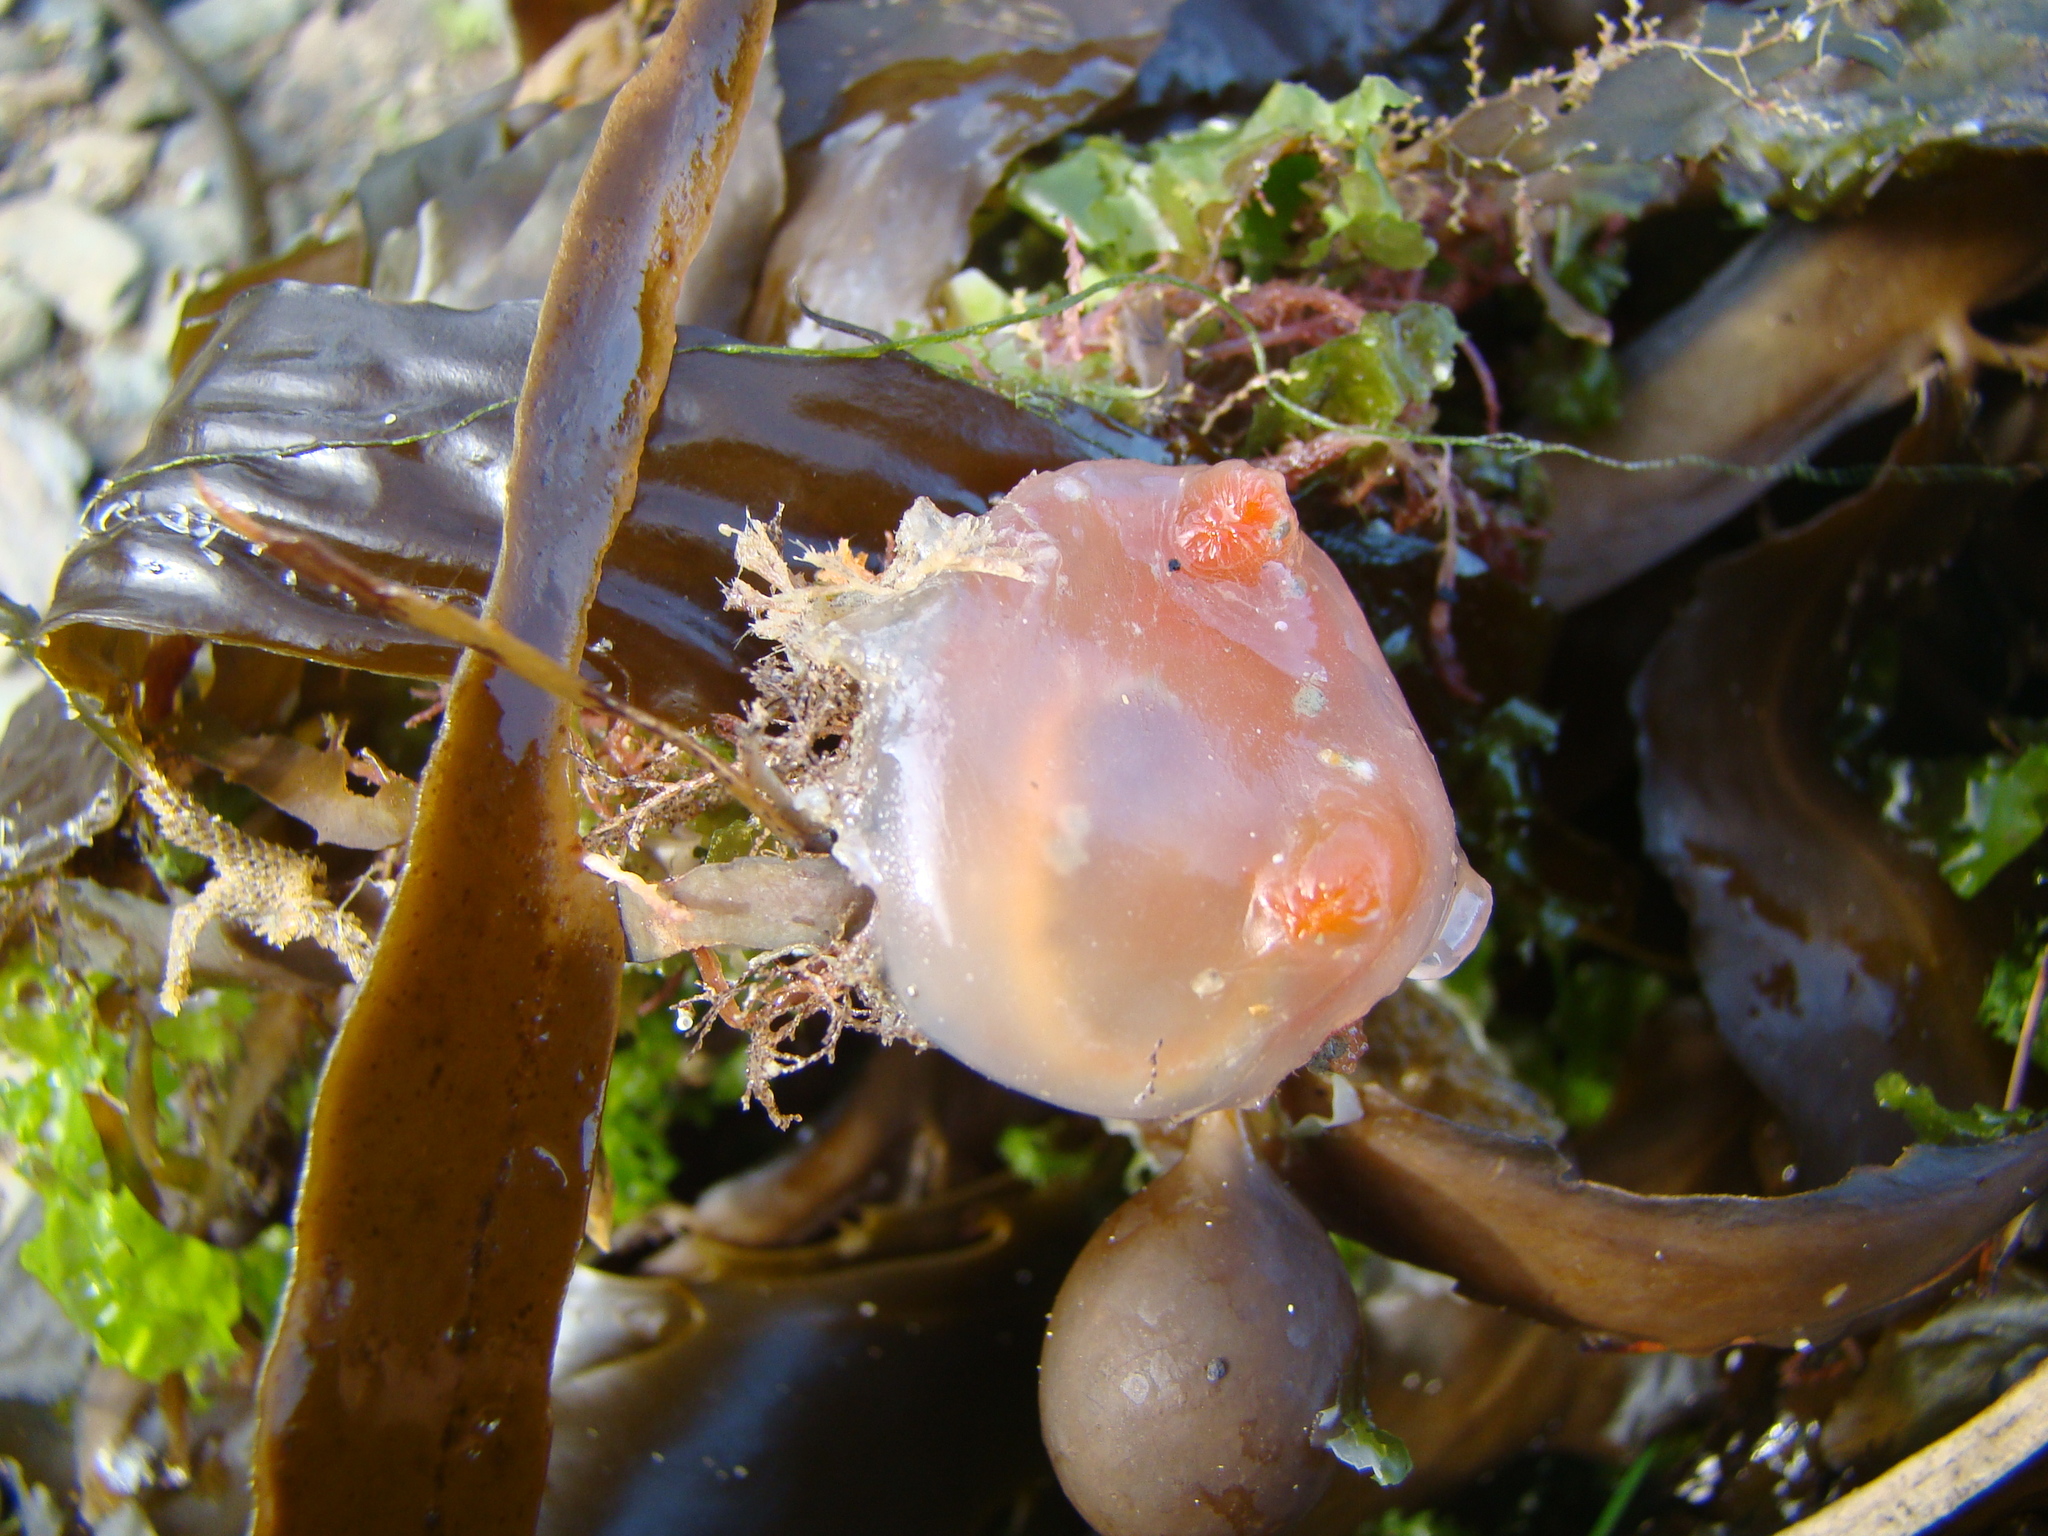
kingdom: Animalia
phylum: Chordata
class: Ascidiacea
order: Phlebobranchia
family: Corellidae
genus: Corella
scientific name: Corella eumyota
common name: Orange-tipped sea squirt
